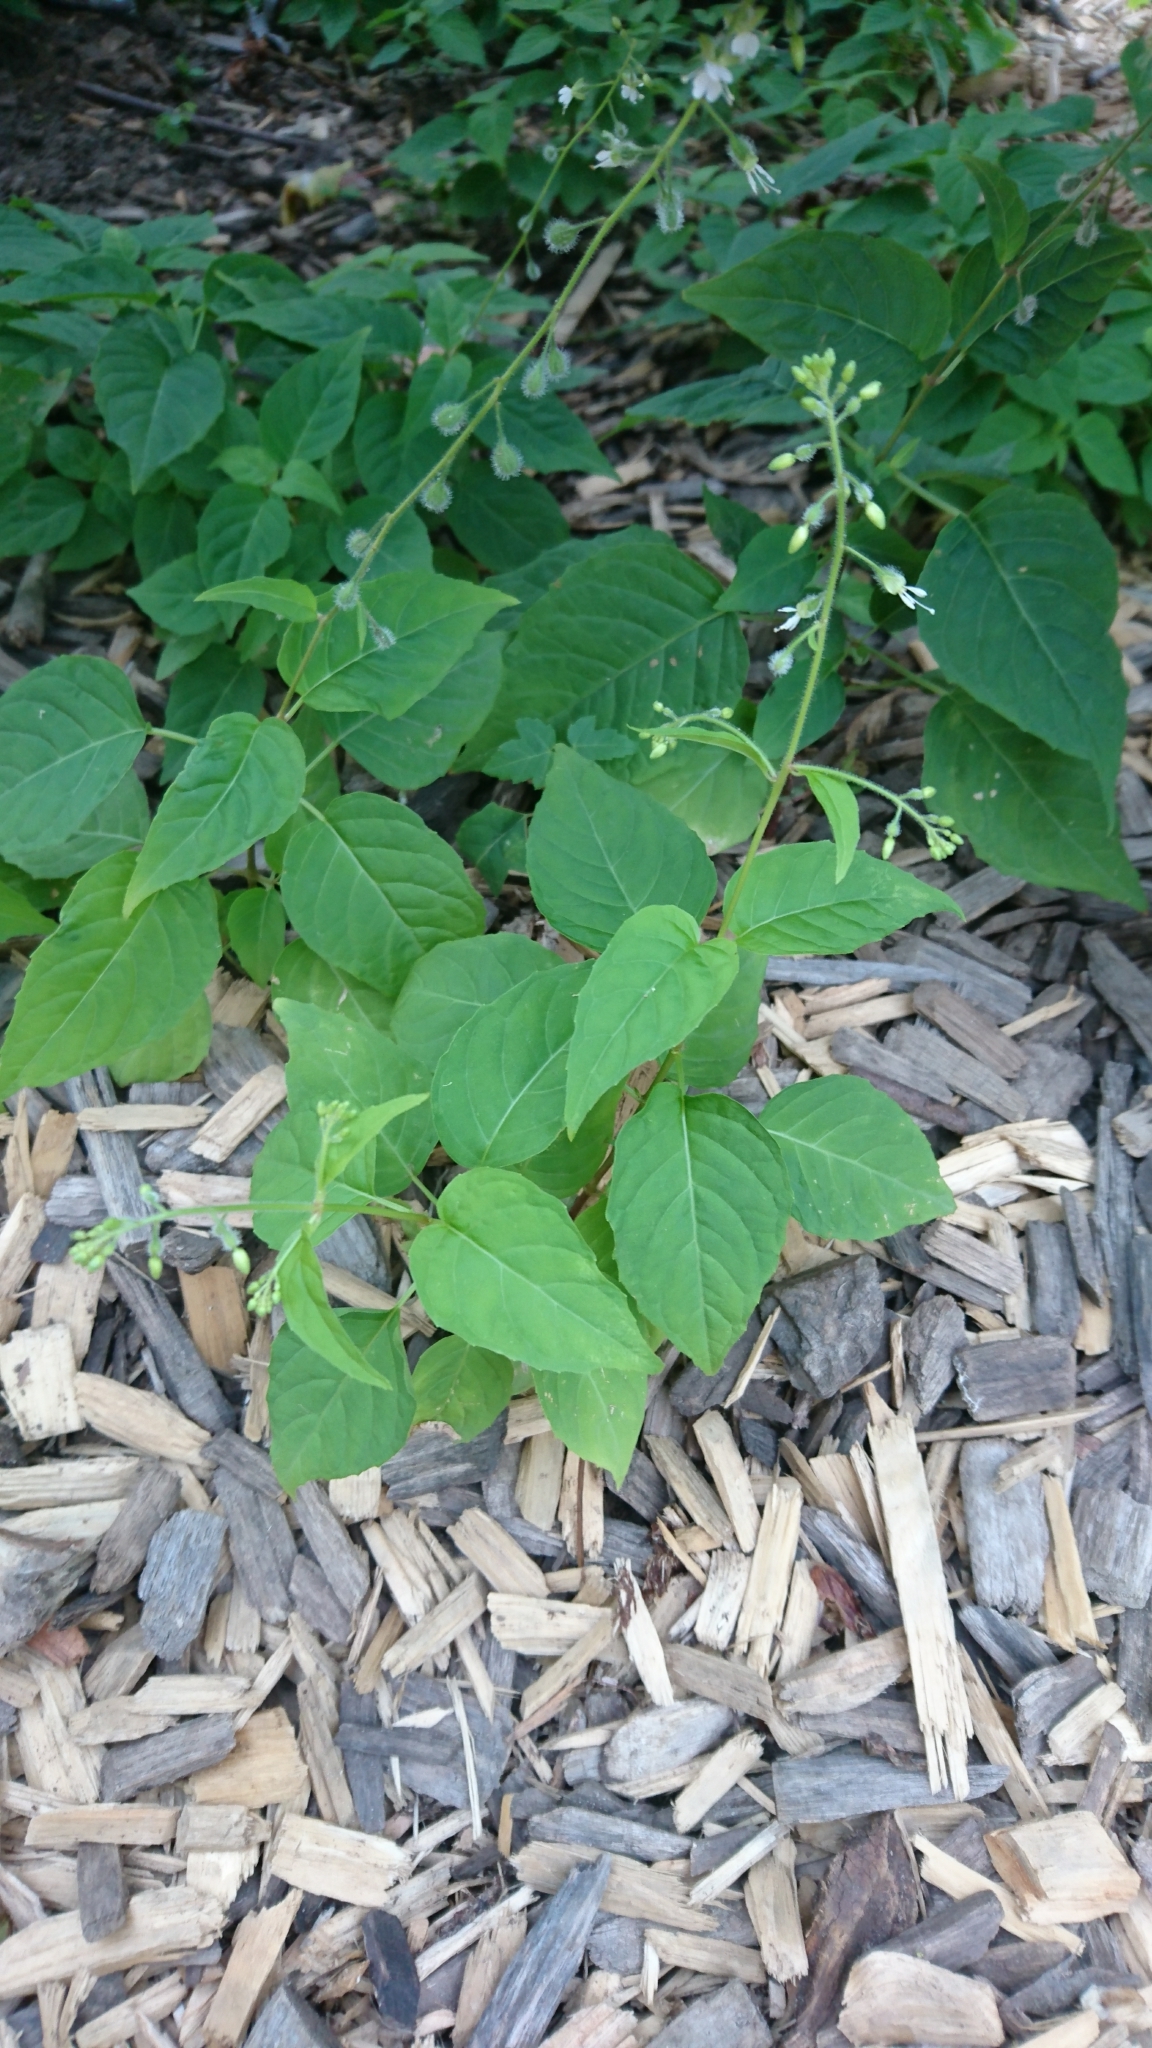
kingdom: Plantae
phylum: Tracheophyta
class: Magnoliopsida
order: Myrtales
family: Onagraceae
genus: Circaea
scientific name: Circaea canadensis
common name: Broad-leaved enchanter's nightshade
